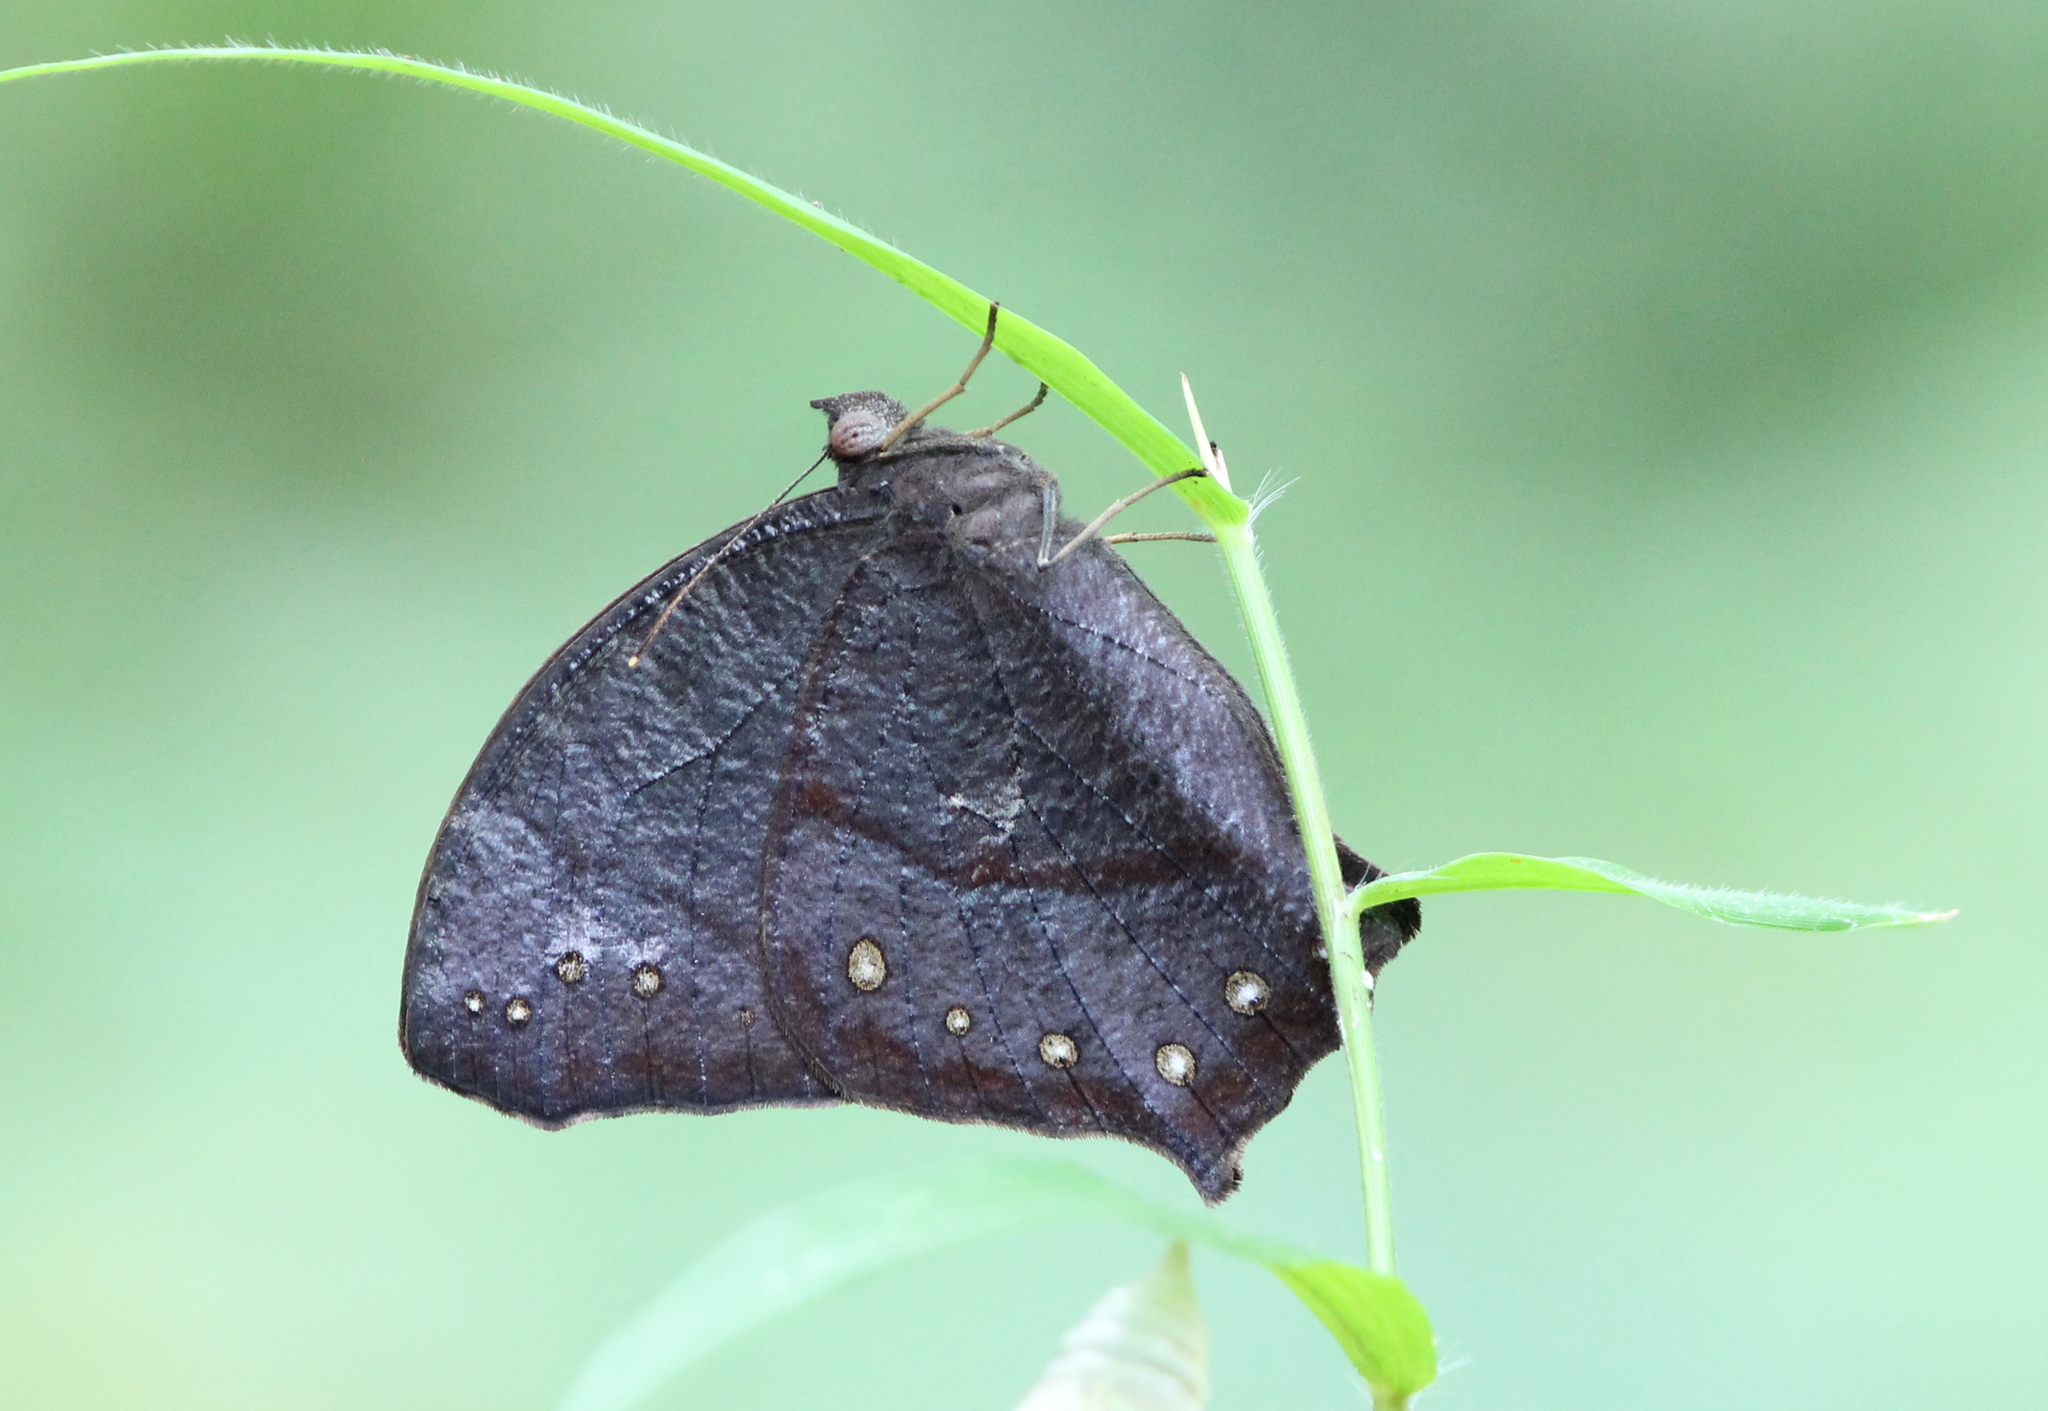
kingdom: Animalia
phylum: Arthropoda
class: Insecta
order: Lepidoptera
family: Nymphalidae
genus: Melanitis
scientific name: Melanitis phedima
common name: Dark evening brown
